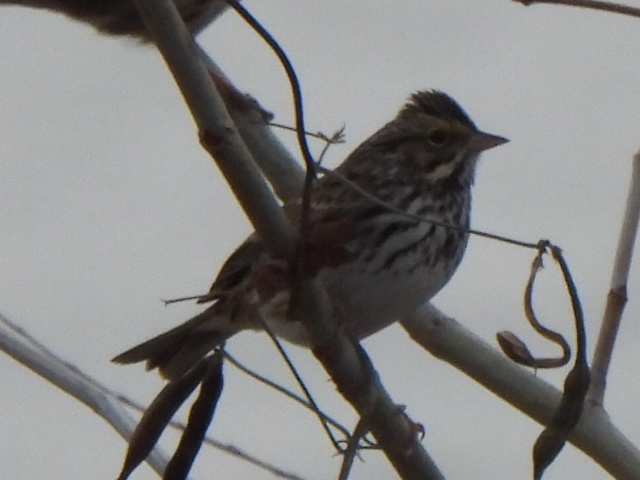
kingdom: Animalia
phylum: Chordata
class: Aves
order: Passeriformes
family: Passerellidae
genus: Passerculus
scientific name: Passerculus sandwichensis
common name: Savannah sparrow
